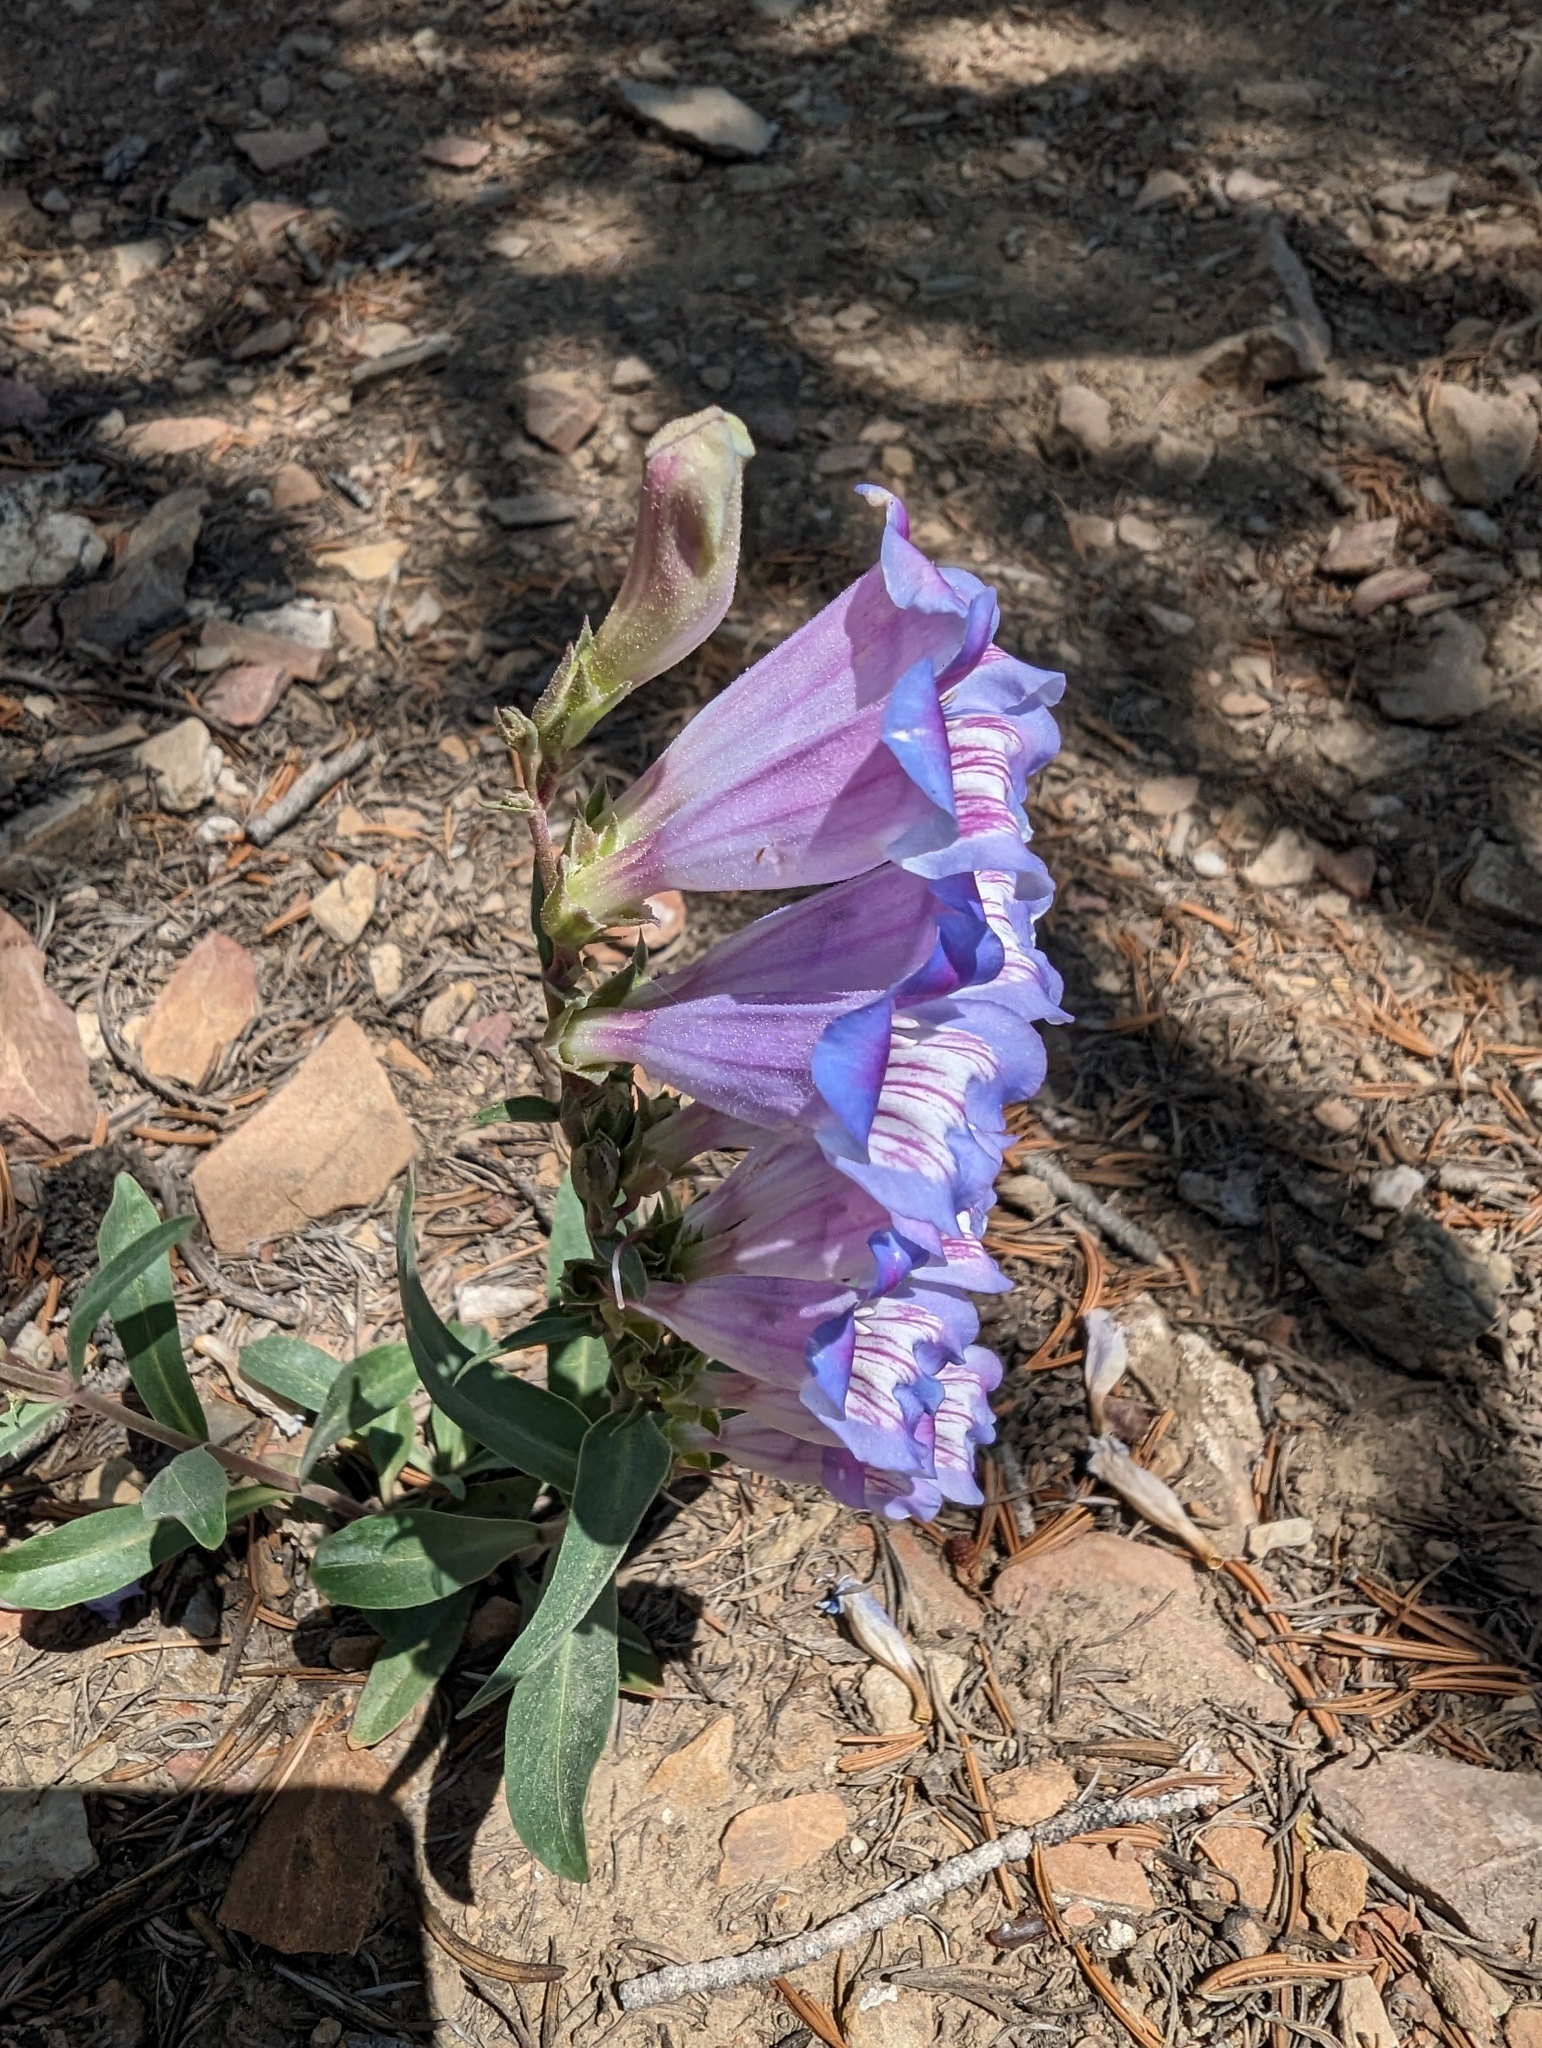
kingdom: Plantae
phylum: Tracheophyta
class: Magnoliopsida
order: Lamiales
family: Plantaginaceae
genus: Penstemon
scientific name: Penstemon speciosus
